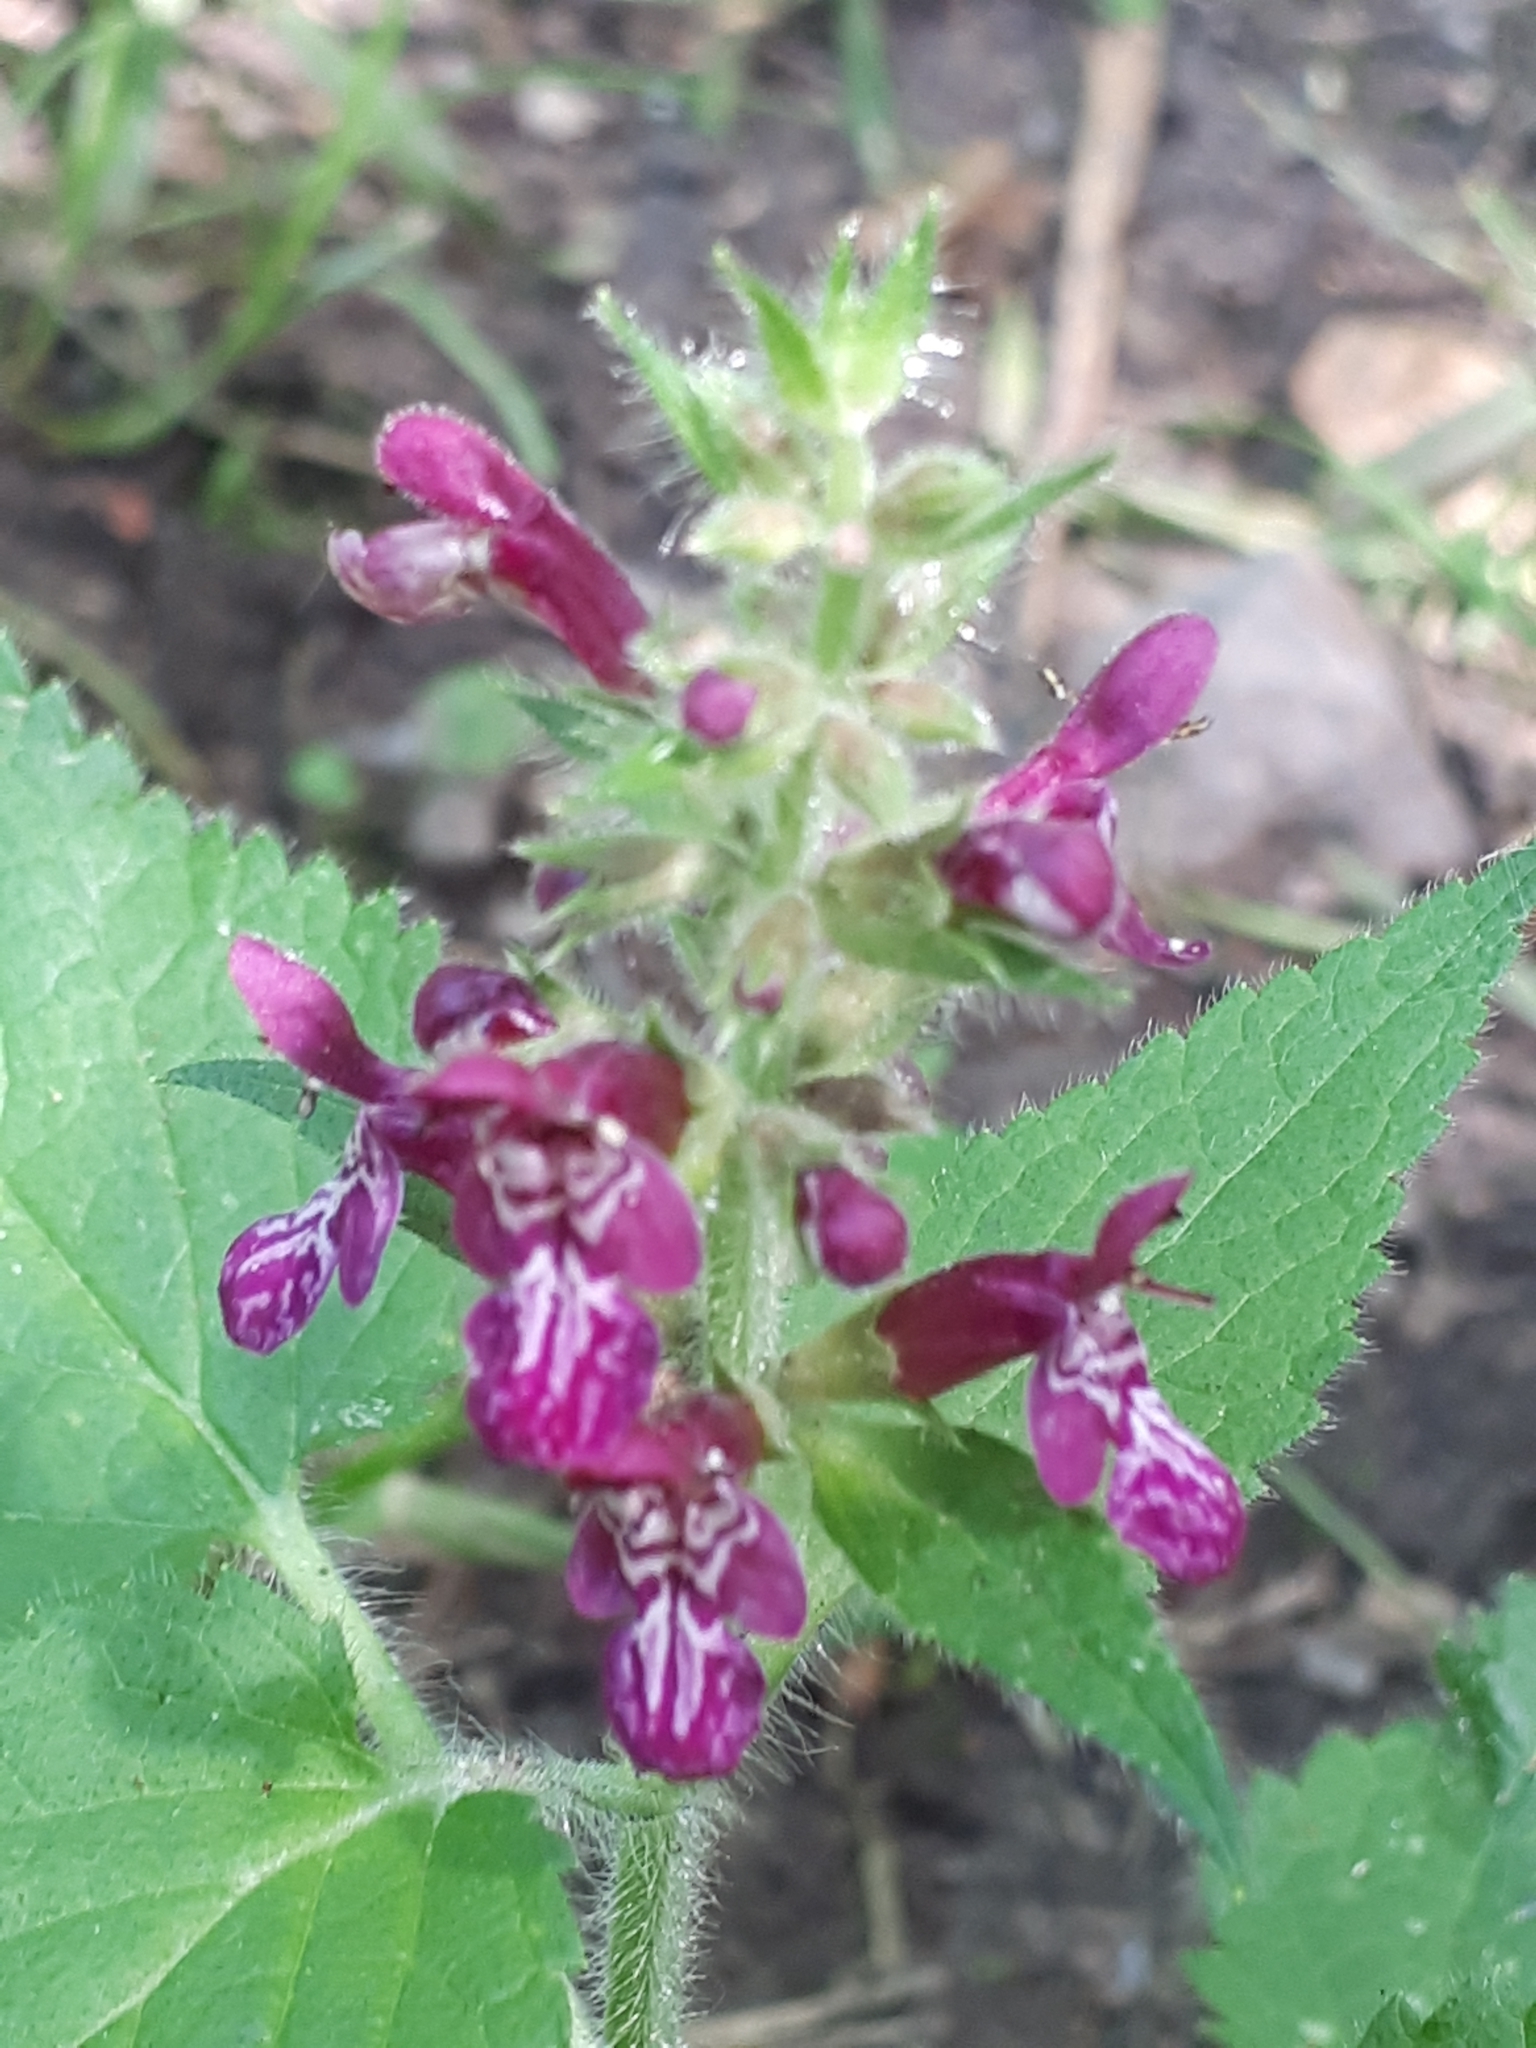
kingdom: Plantae
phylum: Tracheophyta
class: Magnoliopsida
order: Lamiales
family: Lamiaceae
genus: Stachys
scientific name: Stachys sylvatica
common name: Hedge woundwort
